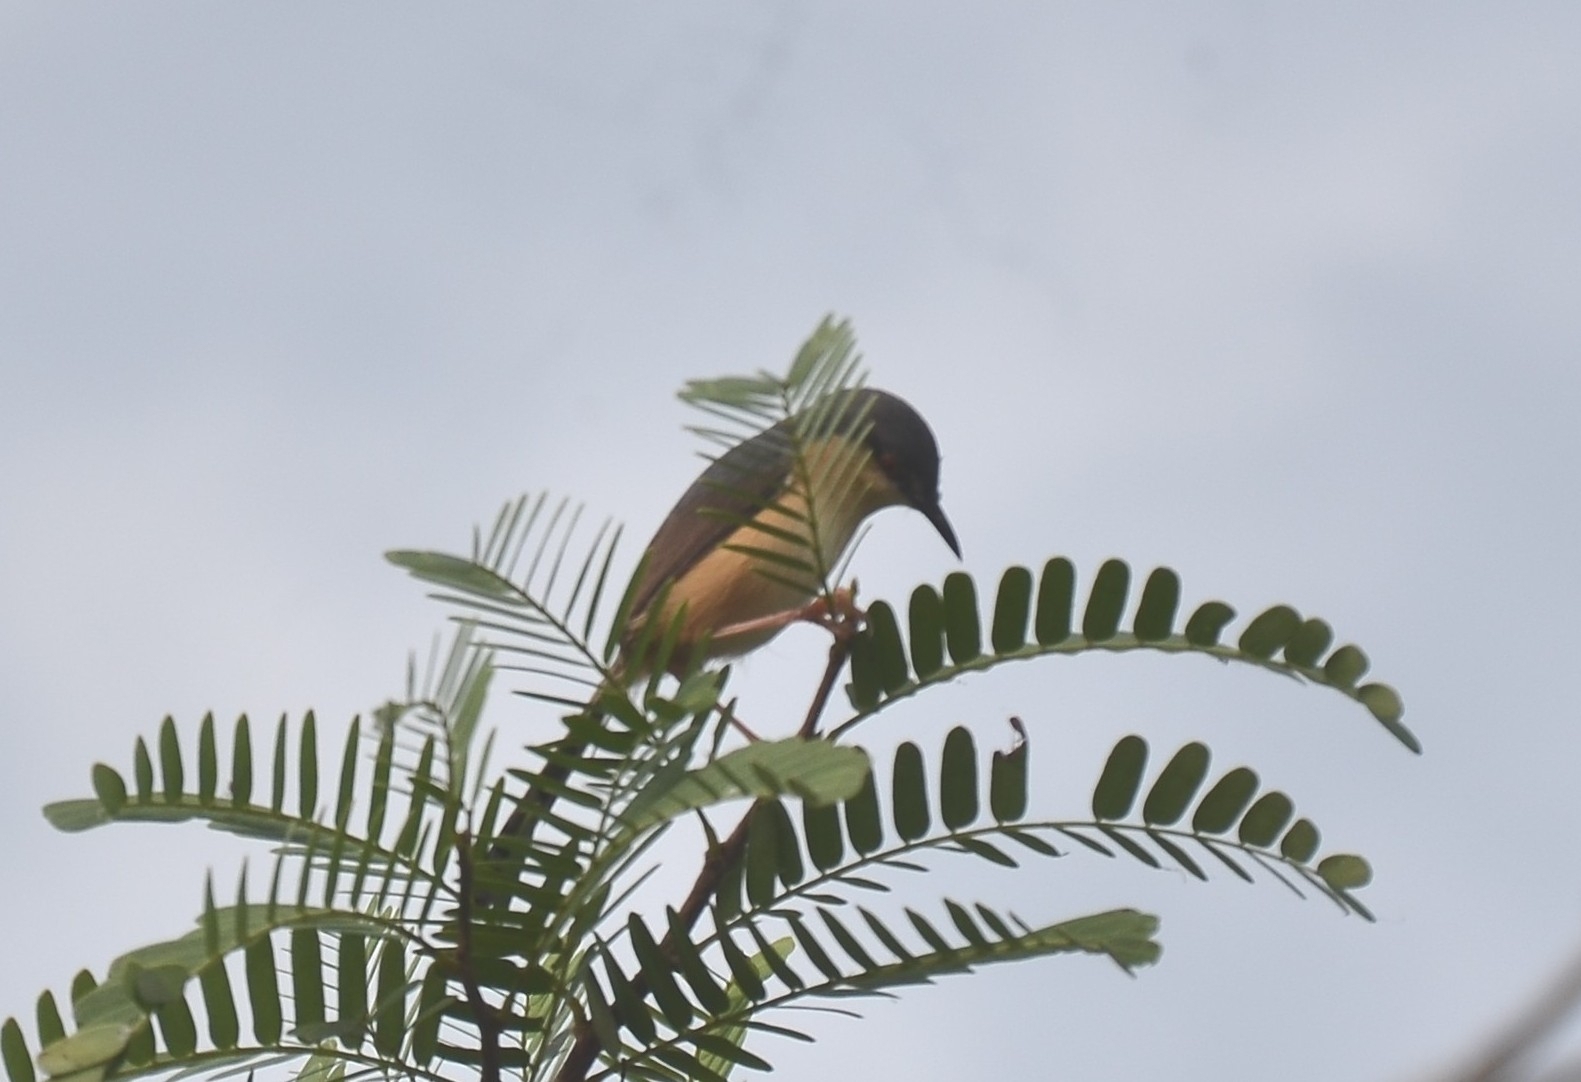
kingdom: Animalia
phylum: Chordata
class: Aves
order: Passeriformes
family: Cisticolidae
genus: Prinia
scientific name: Prinia socialis
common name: Ashy prinia
